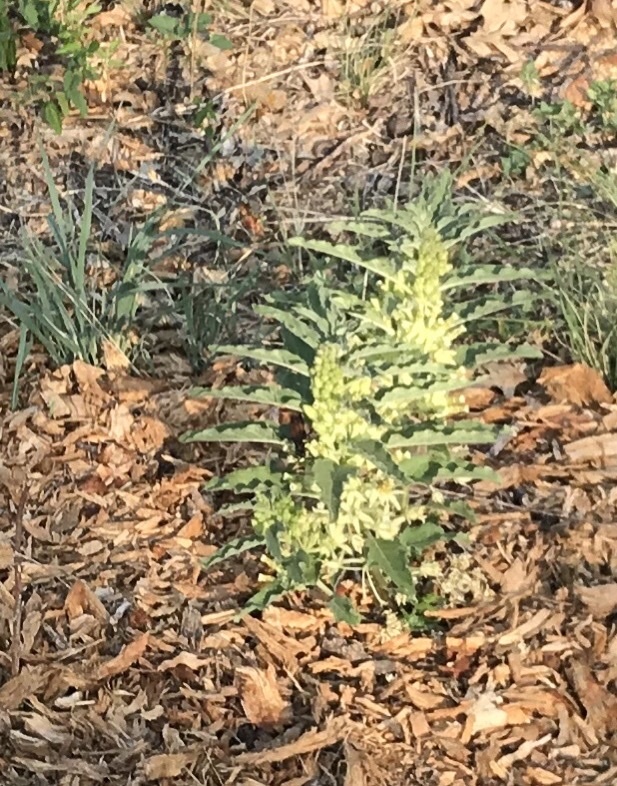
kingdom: Plantae
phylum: Tracheophyta
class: Magnoliopsida
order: Gentianales
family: Apocynaceae
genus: Asclepias
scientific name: Asclepias oenotheroides
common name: Zizotes milkweed
